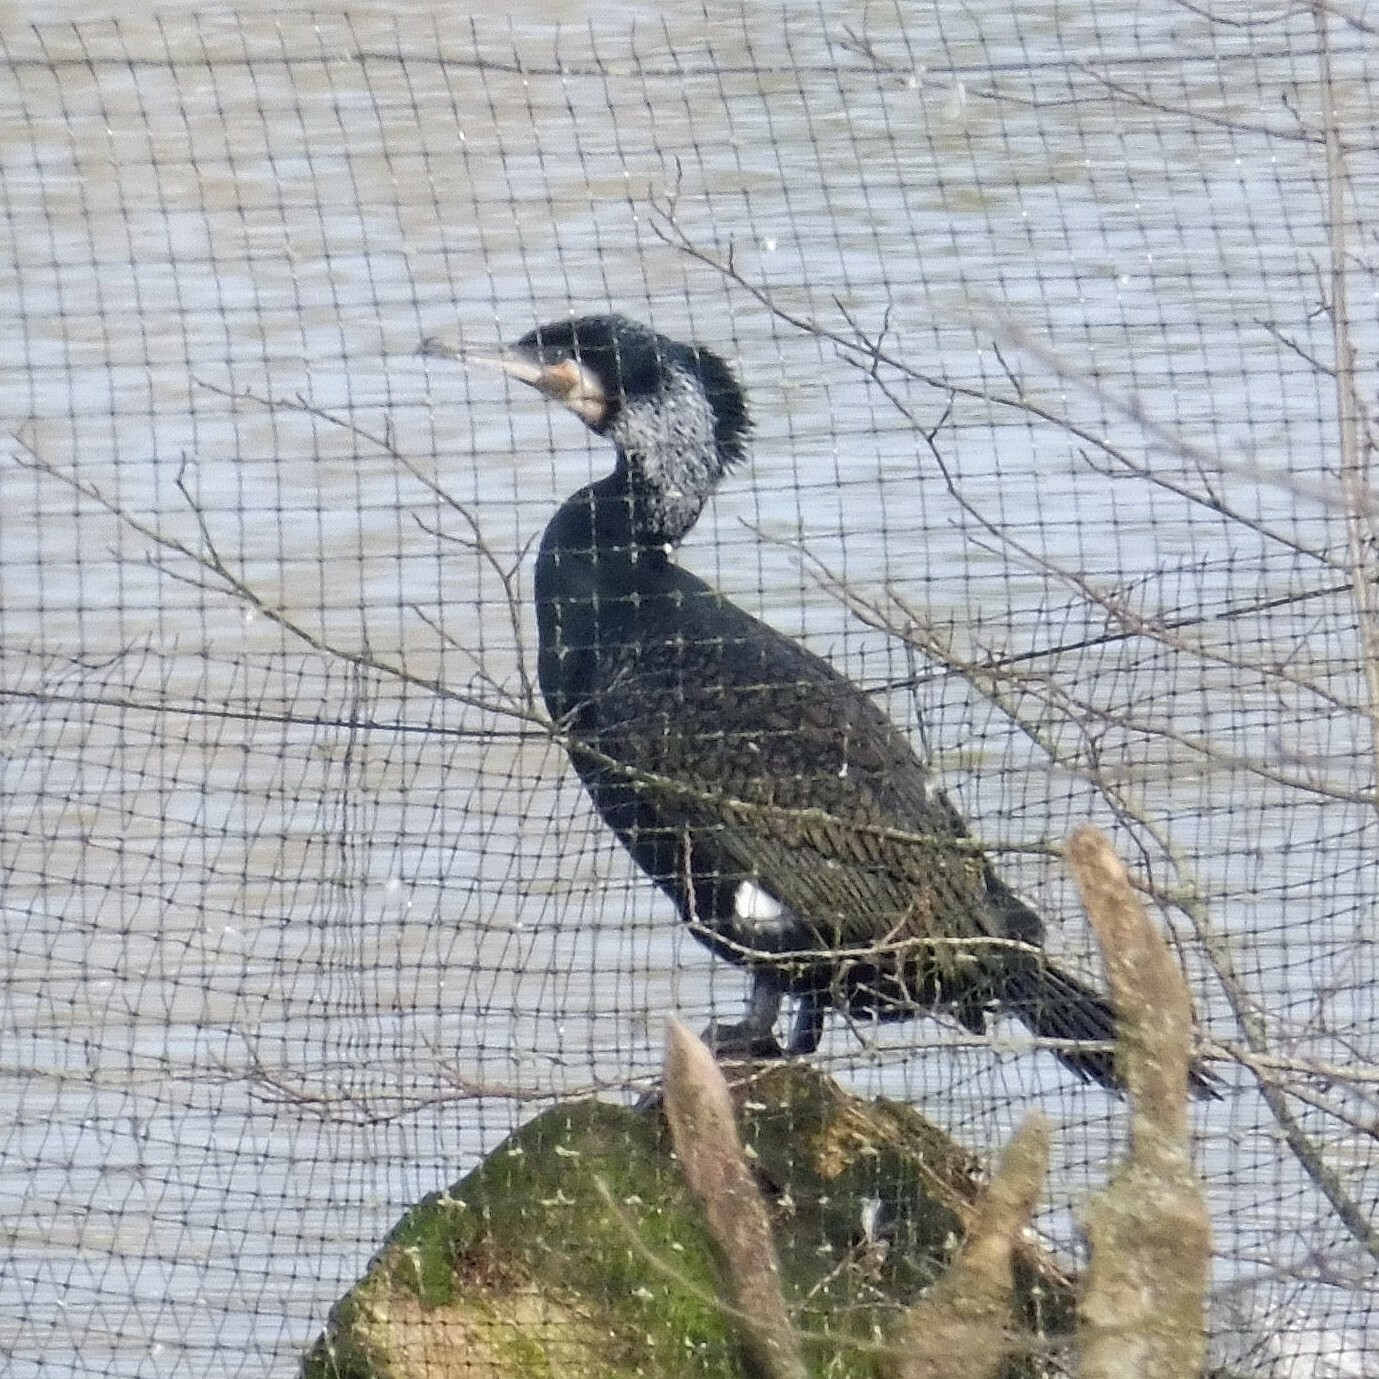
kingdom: Animalia
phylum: Chordata
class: Aves
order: Suliformes
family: Phalacrocoracidae
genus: Phalacrocorax
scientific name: Phalacrocorax carbo
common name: Great cormorant
